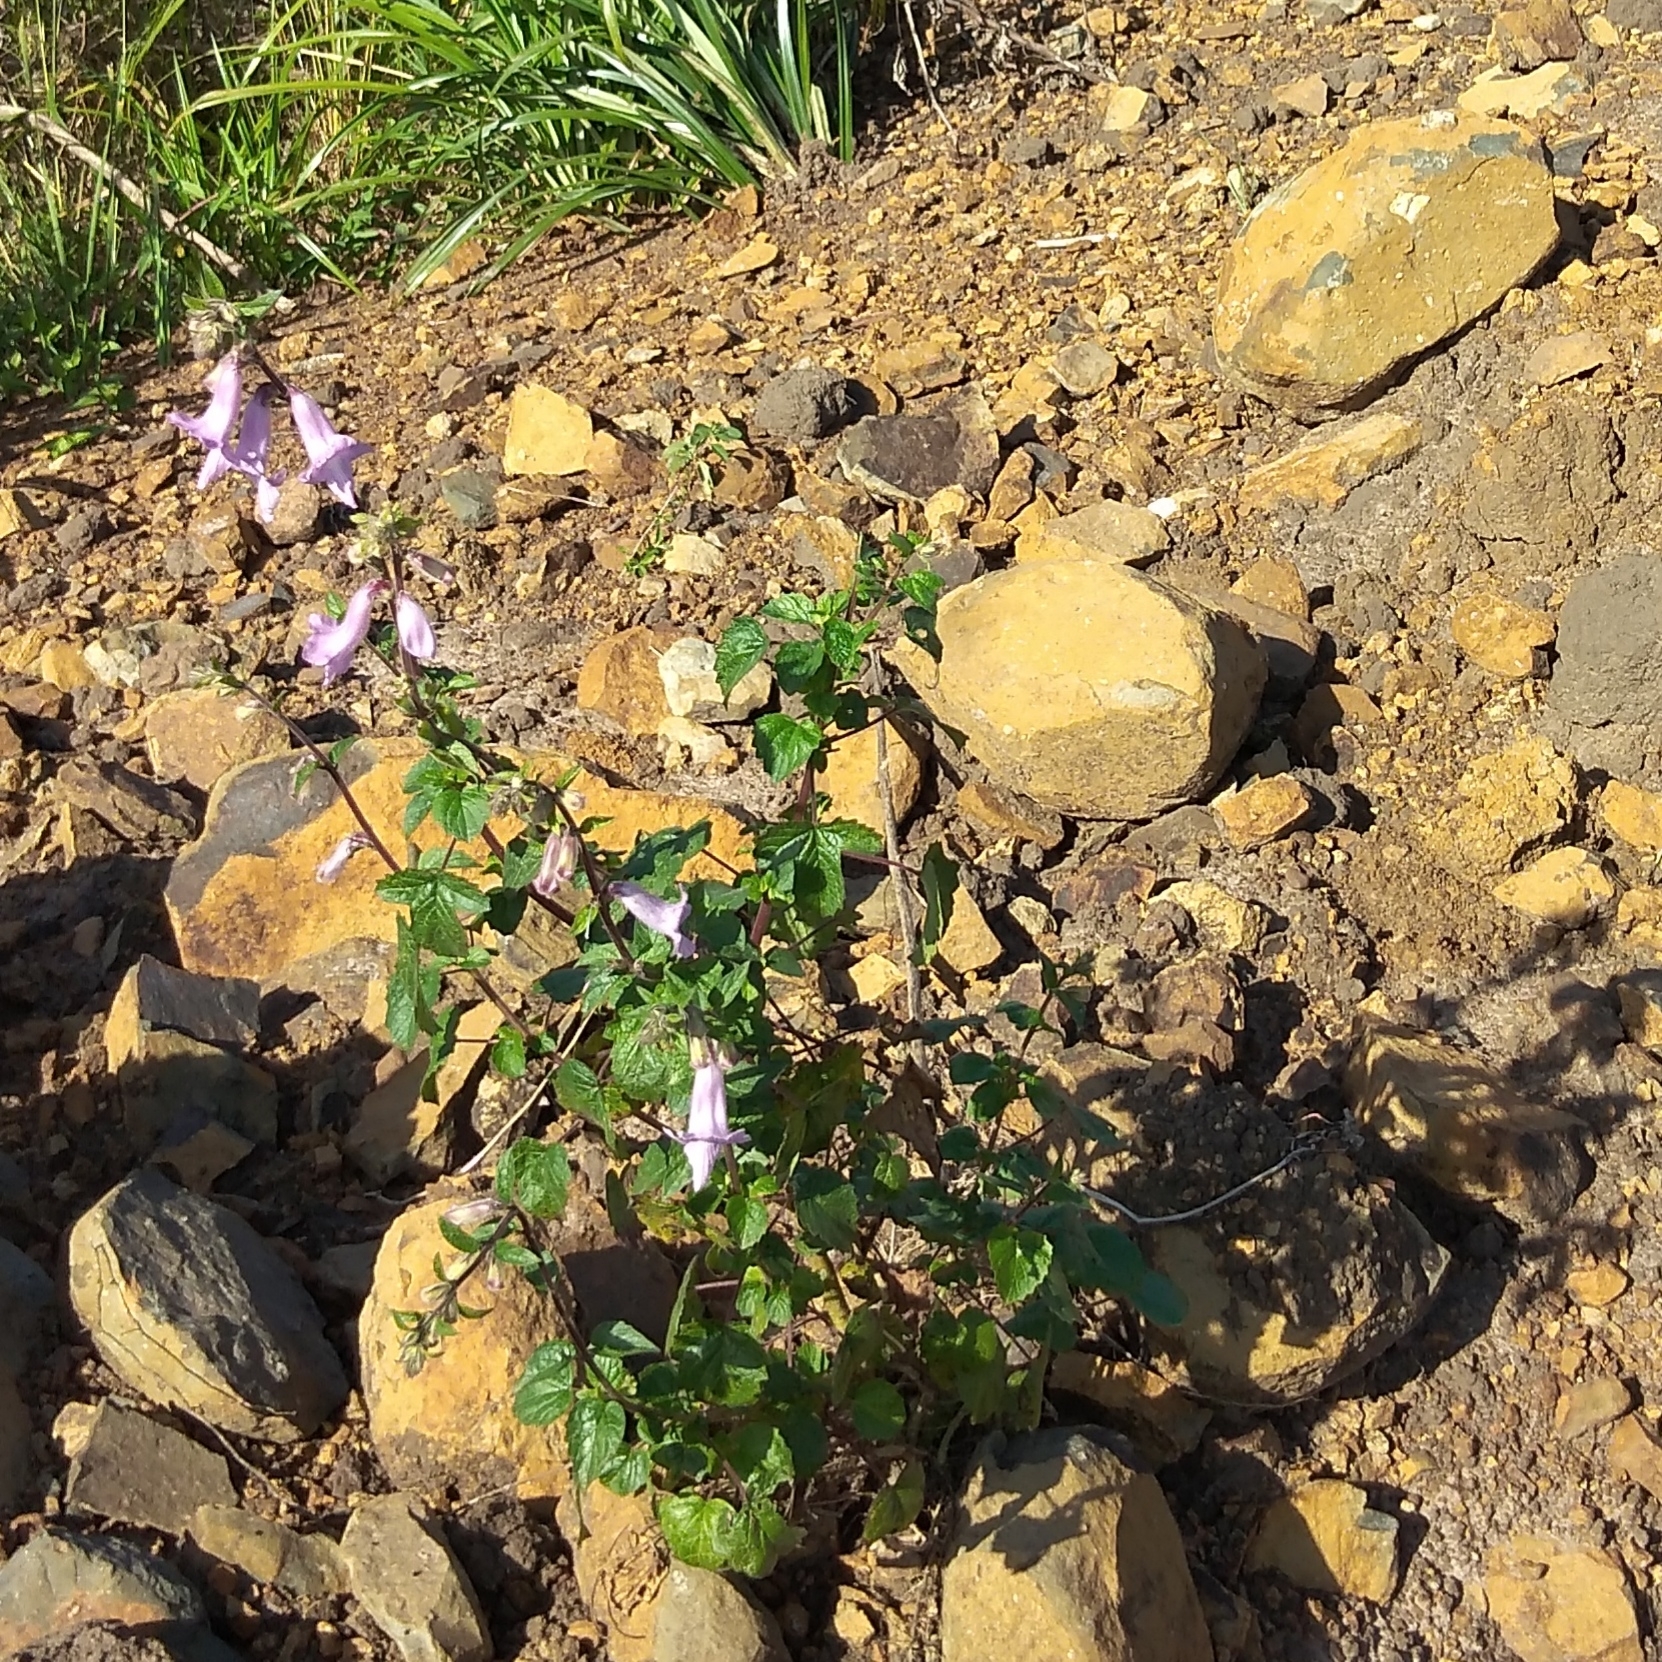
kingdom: Plantae
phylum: Tracheophyta
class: Magnoliopsida
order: Lamiales
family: Pedaliaceae
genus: Sesamum
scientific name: Sesamum trilobum
